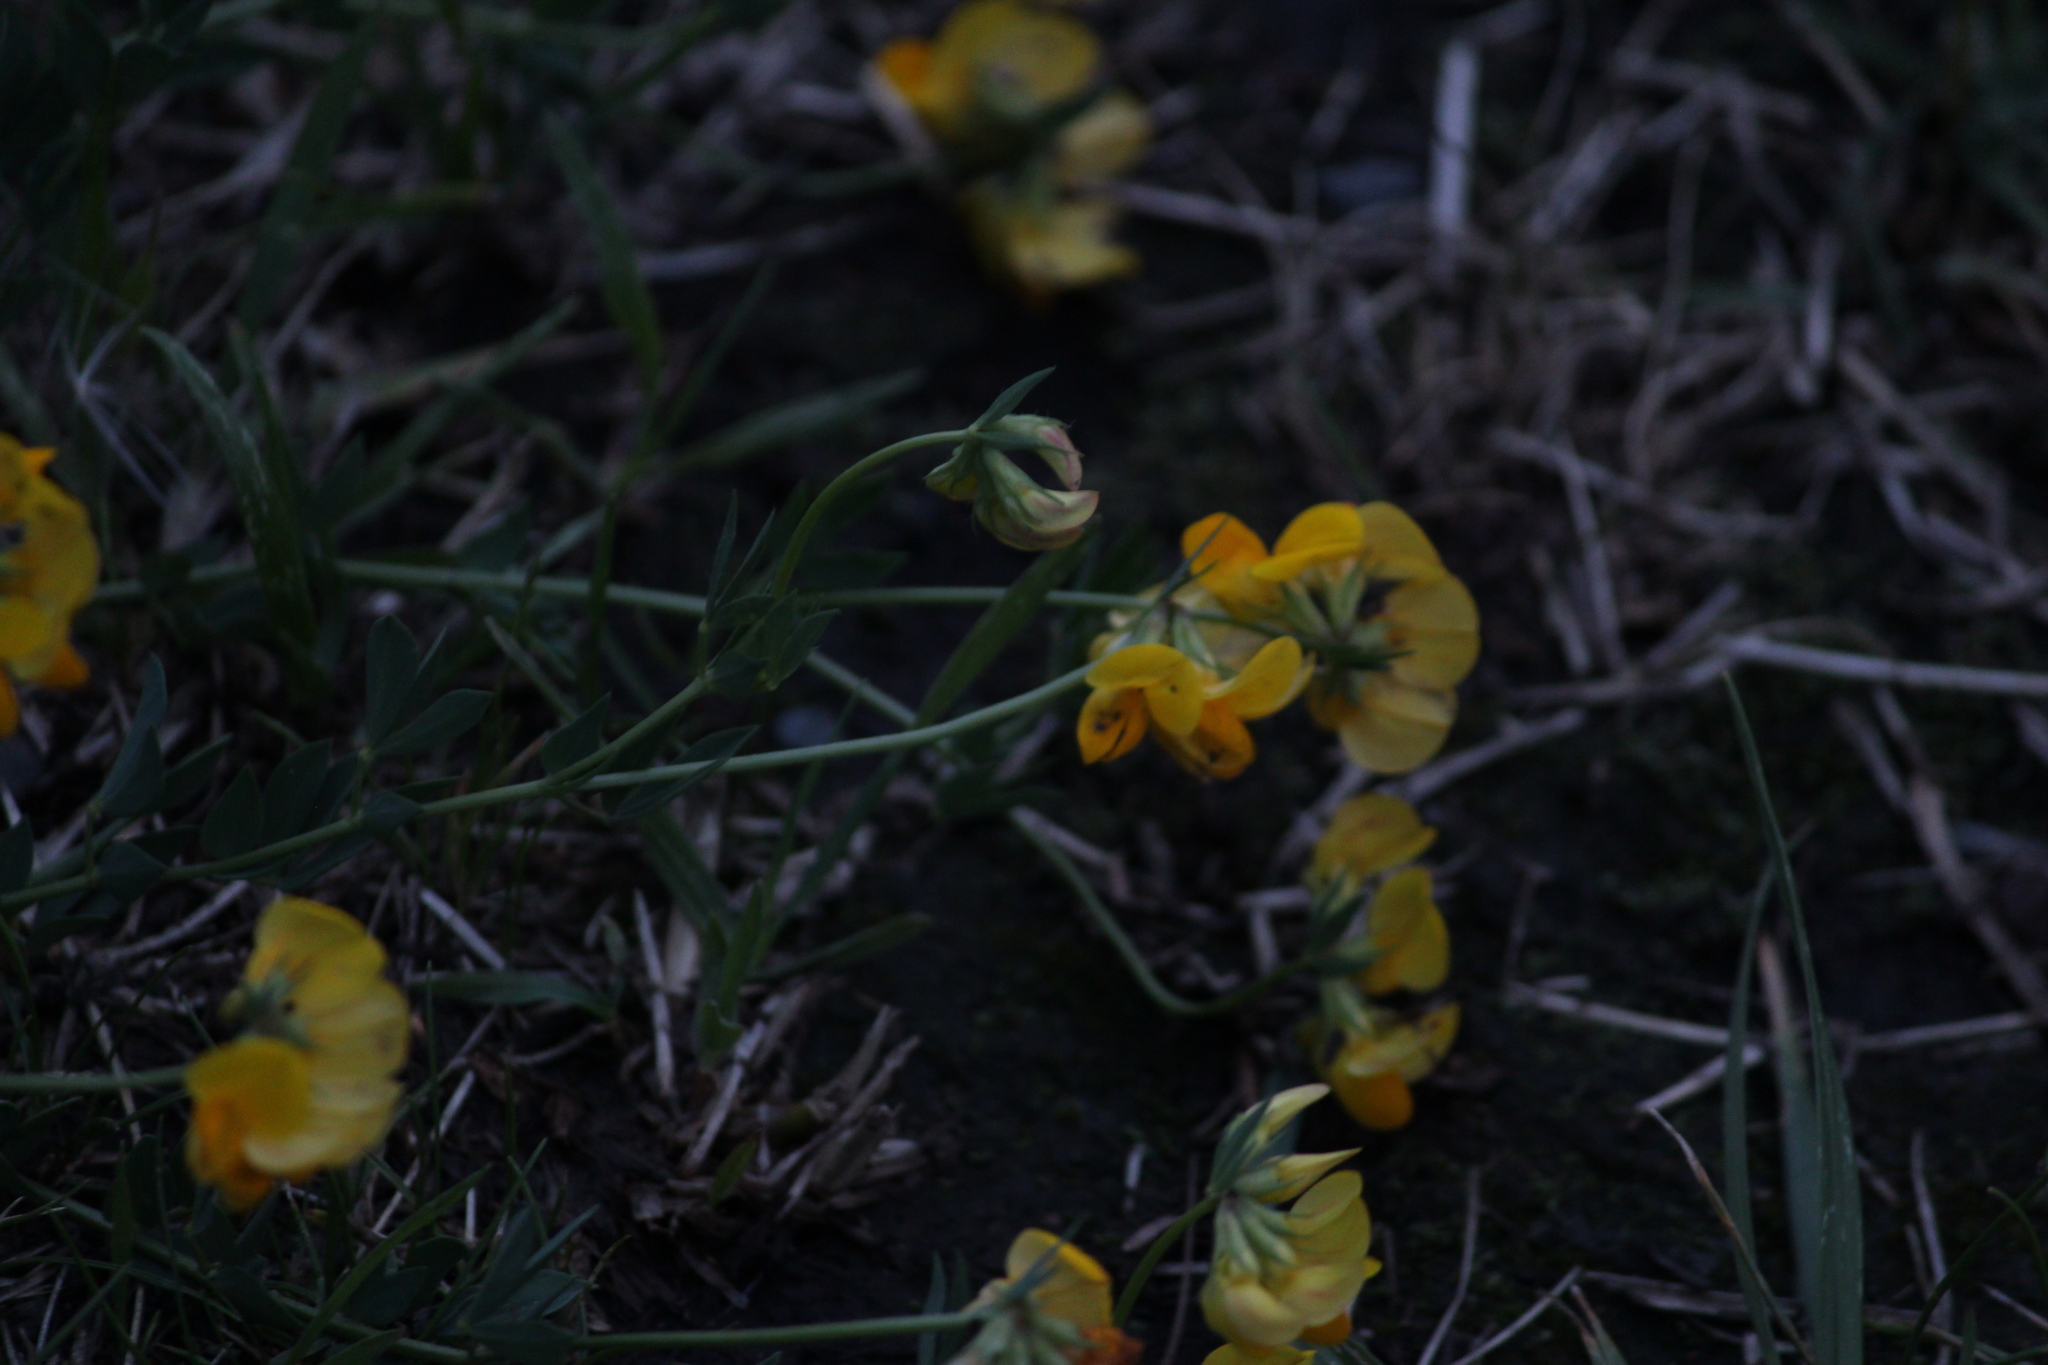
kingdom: Plantae
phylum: Tracheophyta
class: Magnoliopsida
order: Fabales
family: Fabaceae
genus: Lotus
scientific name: Lotus corniculatus
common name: Common bird's-foot-trefoil
